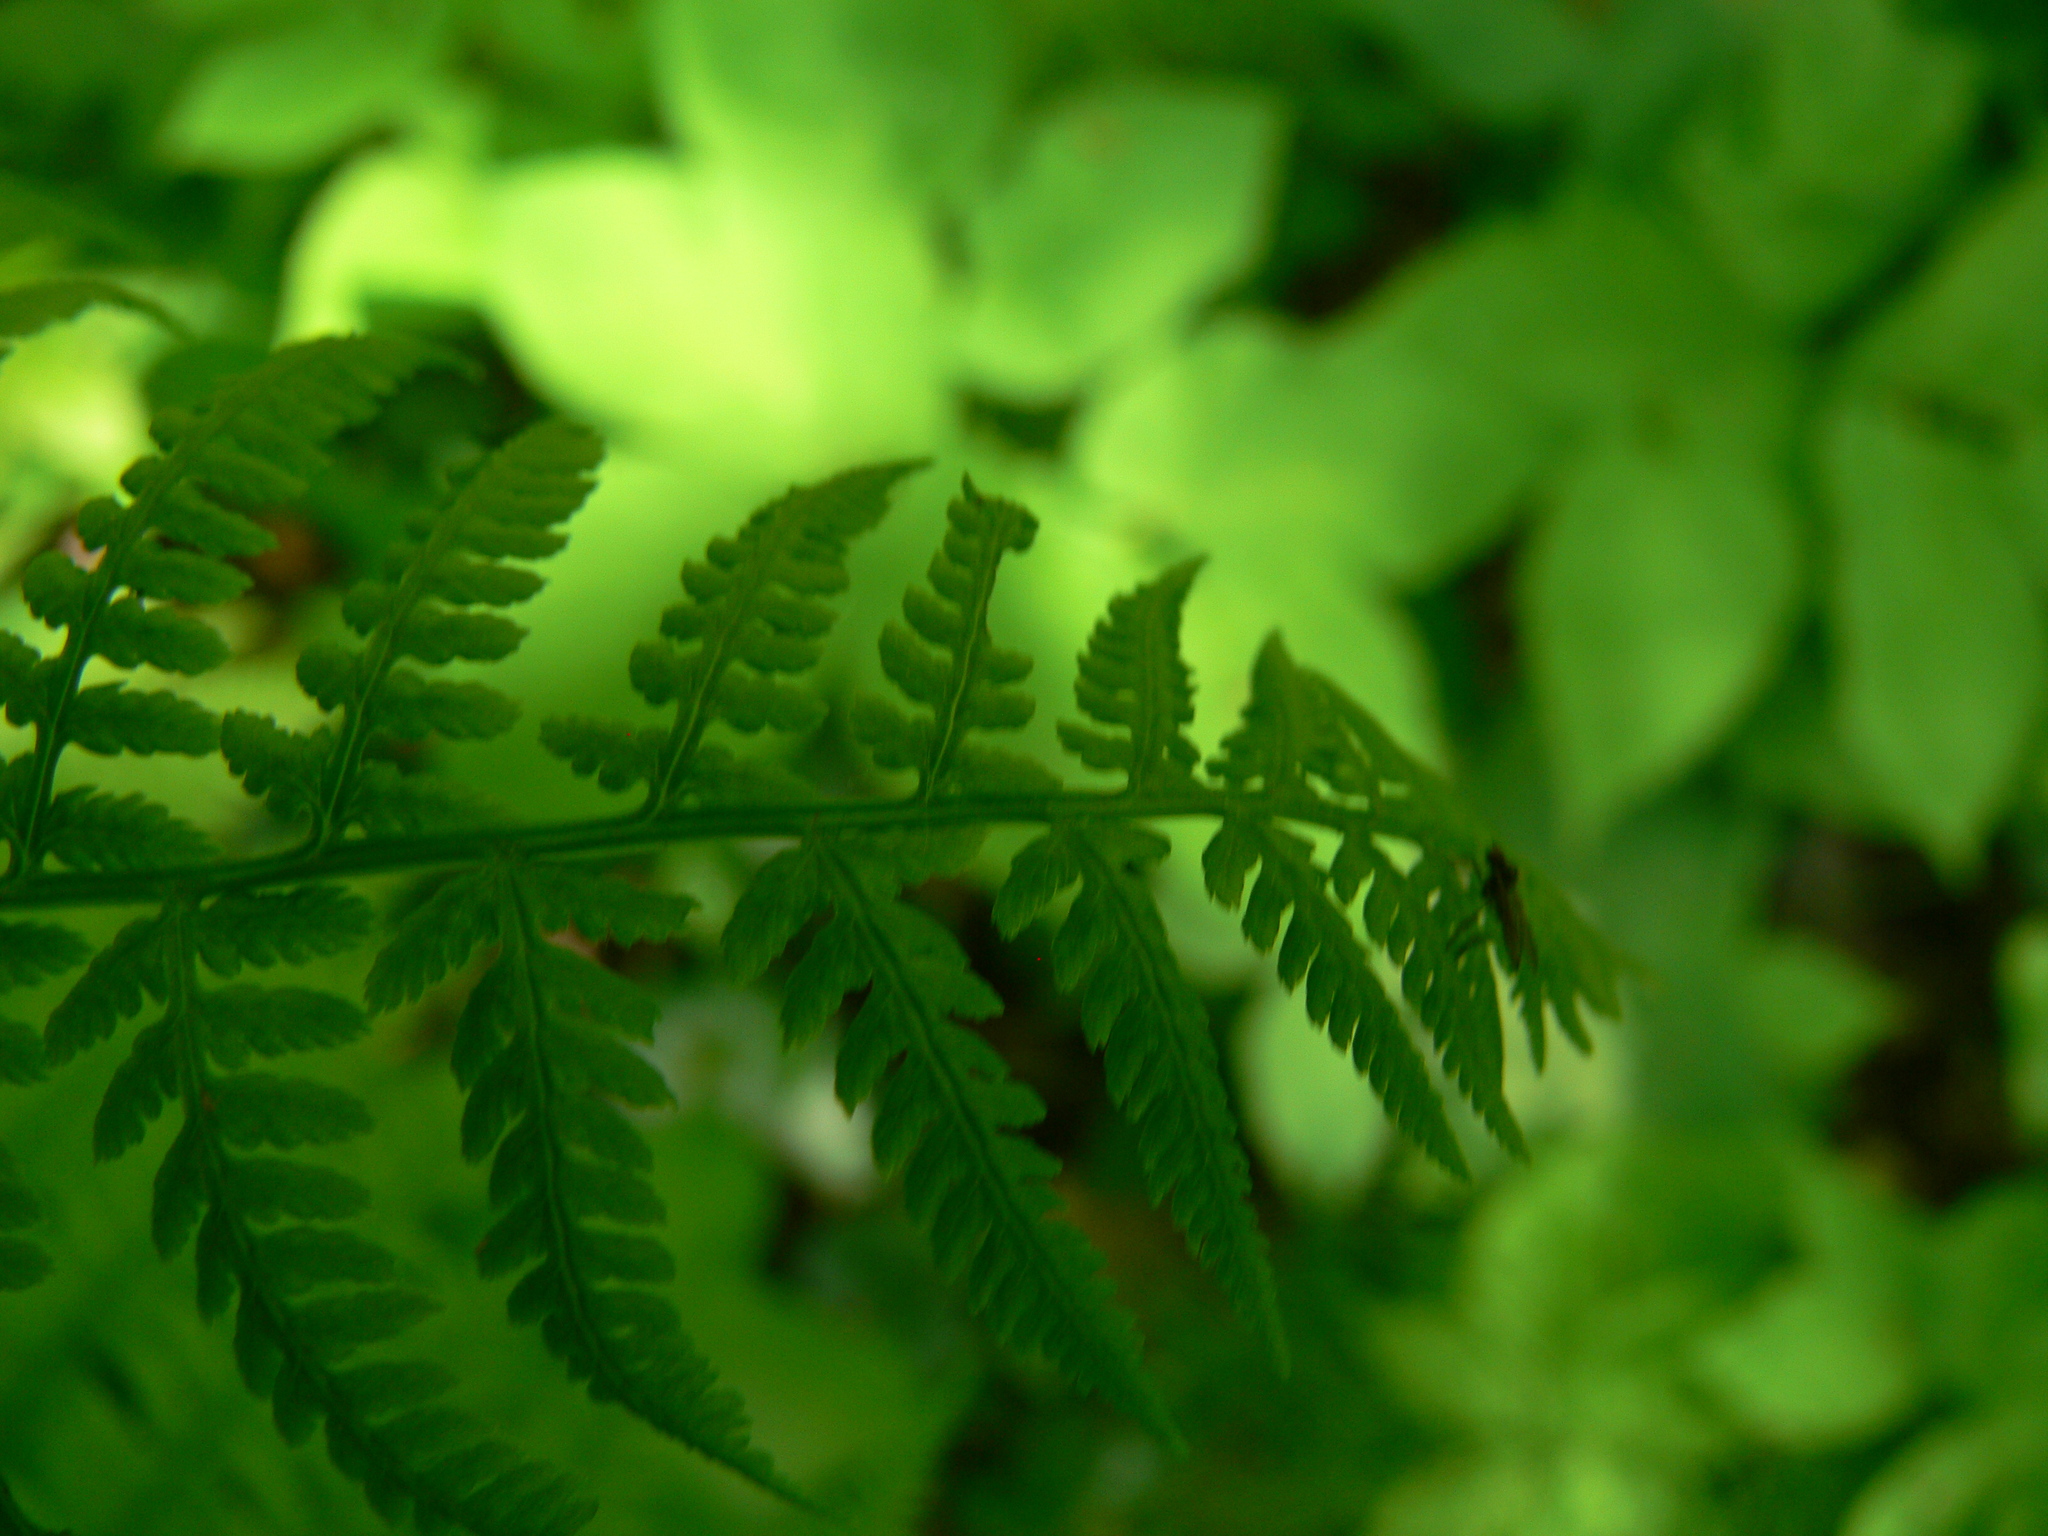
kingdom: Plantae
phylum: Tracheophyta
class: Polypodiopsida
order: Polypodiales
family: Athyriaceae
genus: Athyrium
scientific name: Athyrium filix-femina
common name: Lady fern
